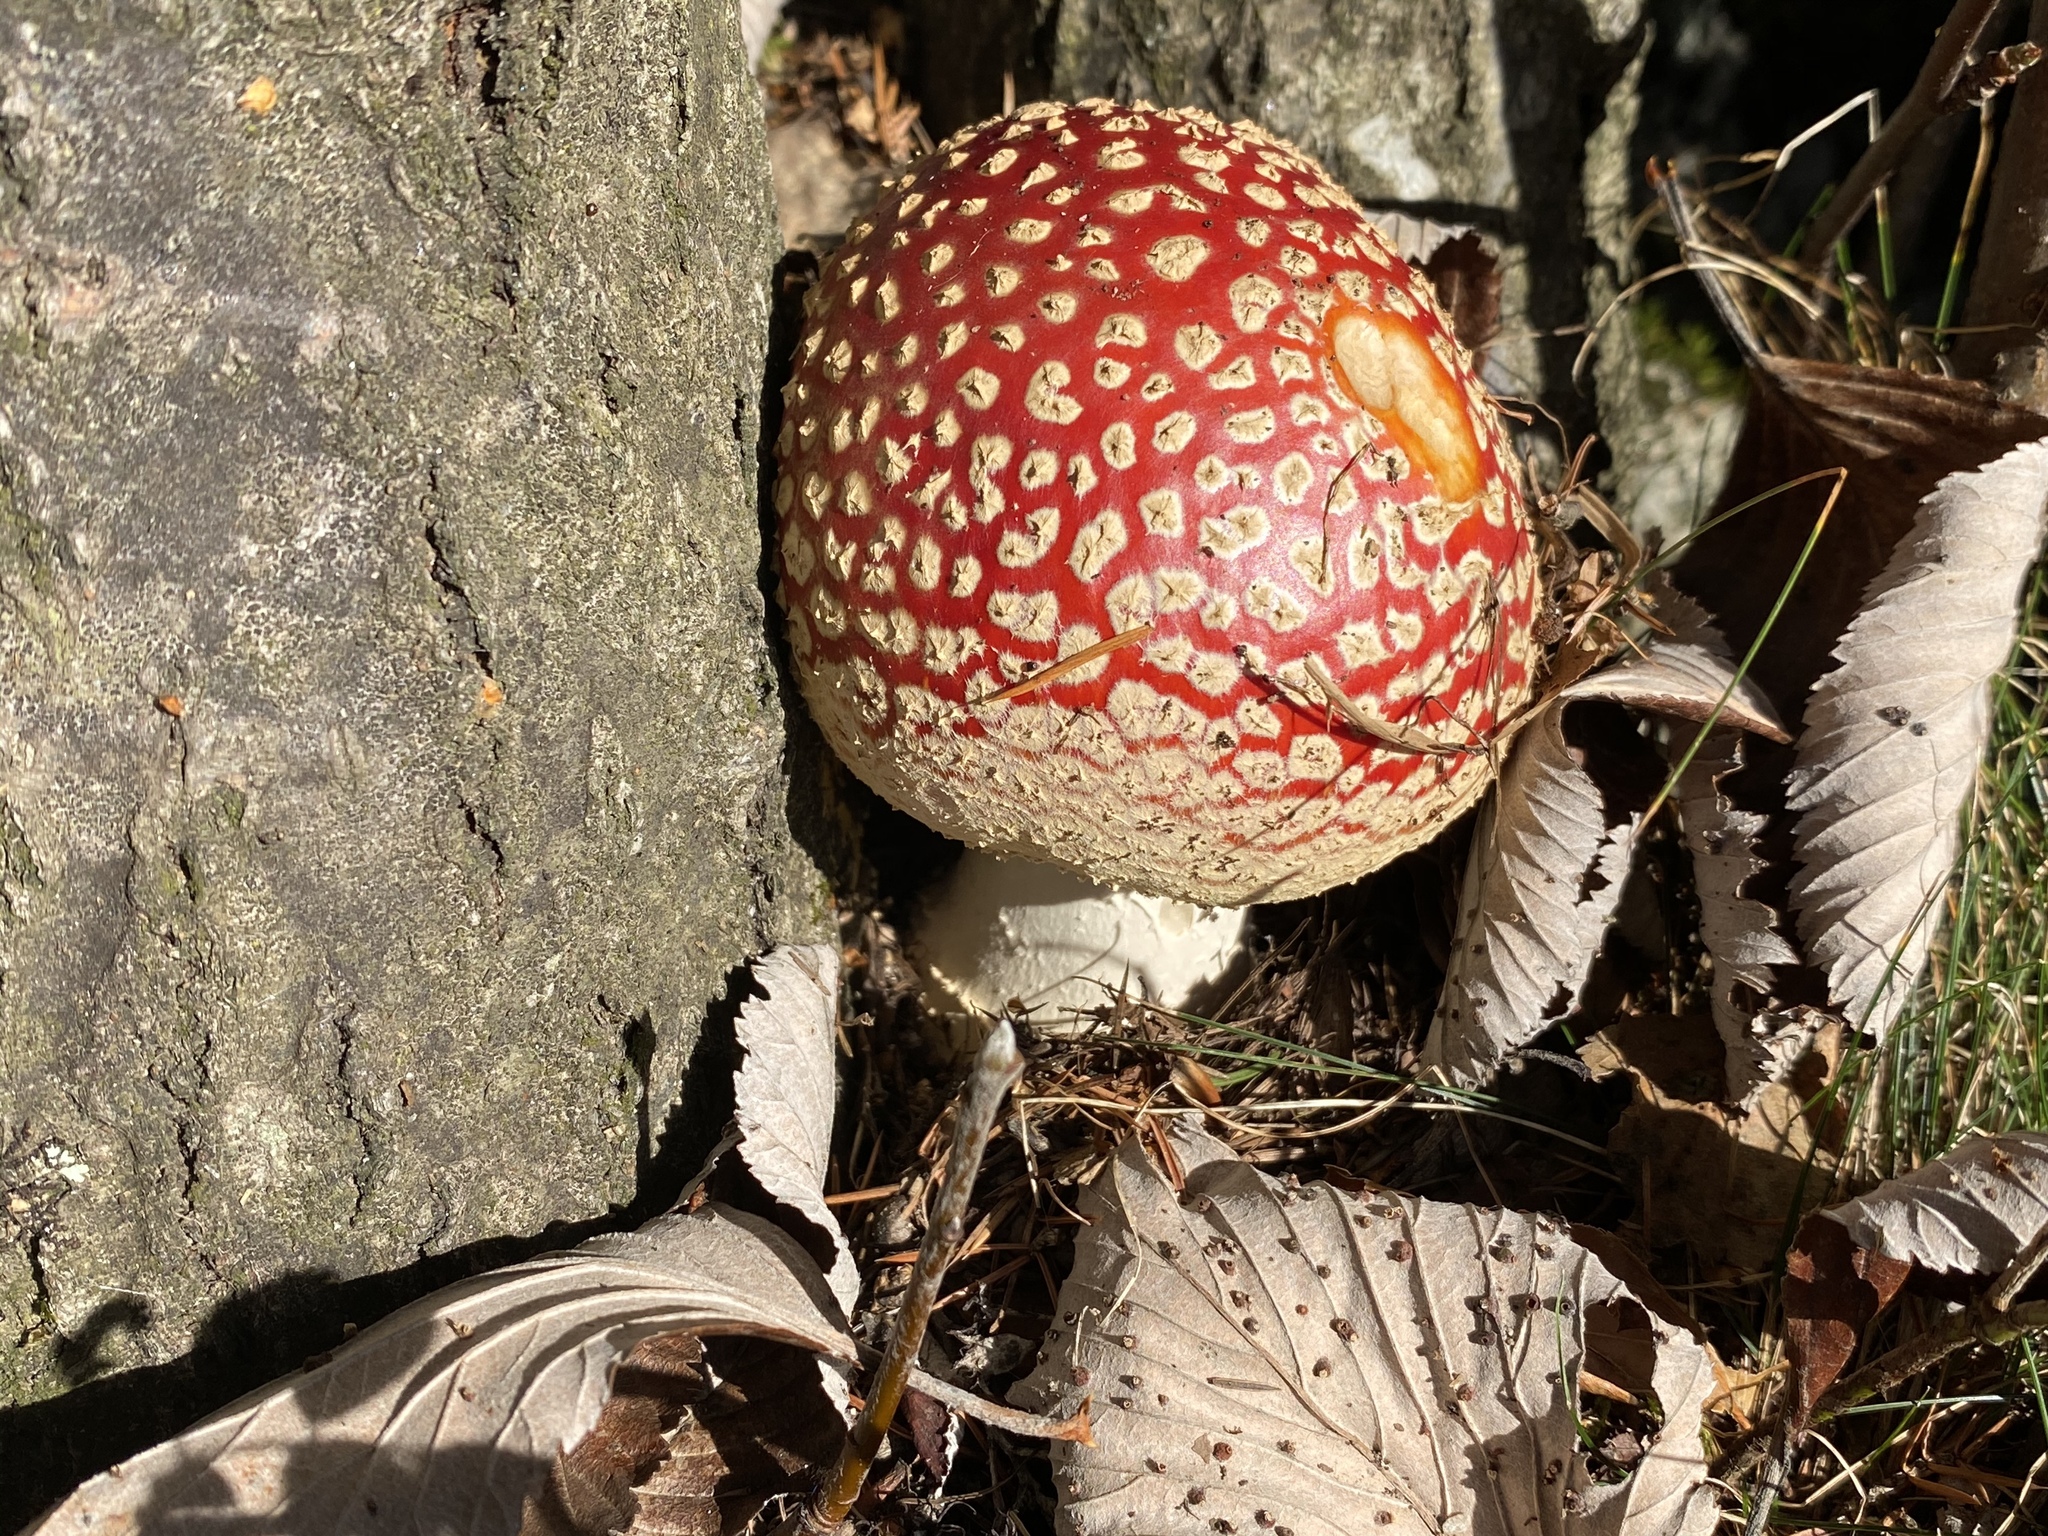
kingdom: Fungi
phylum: Basidiomycota
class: Agaricomycetes
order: Agaricales
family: Amanitaceae
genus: Amanita
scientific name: Amanita muscaria
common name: Fly agaric
